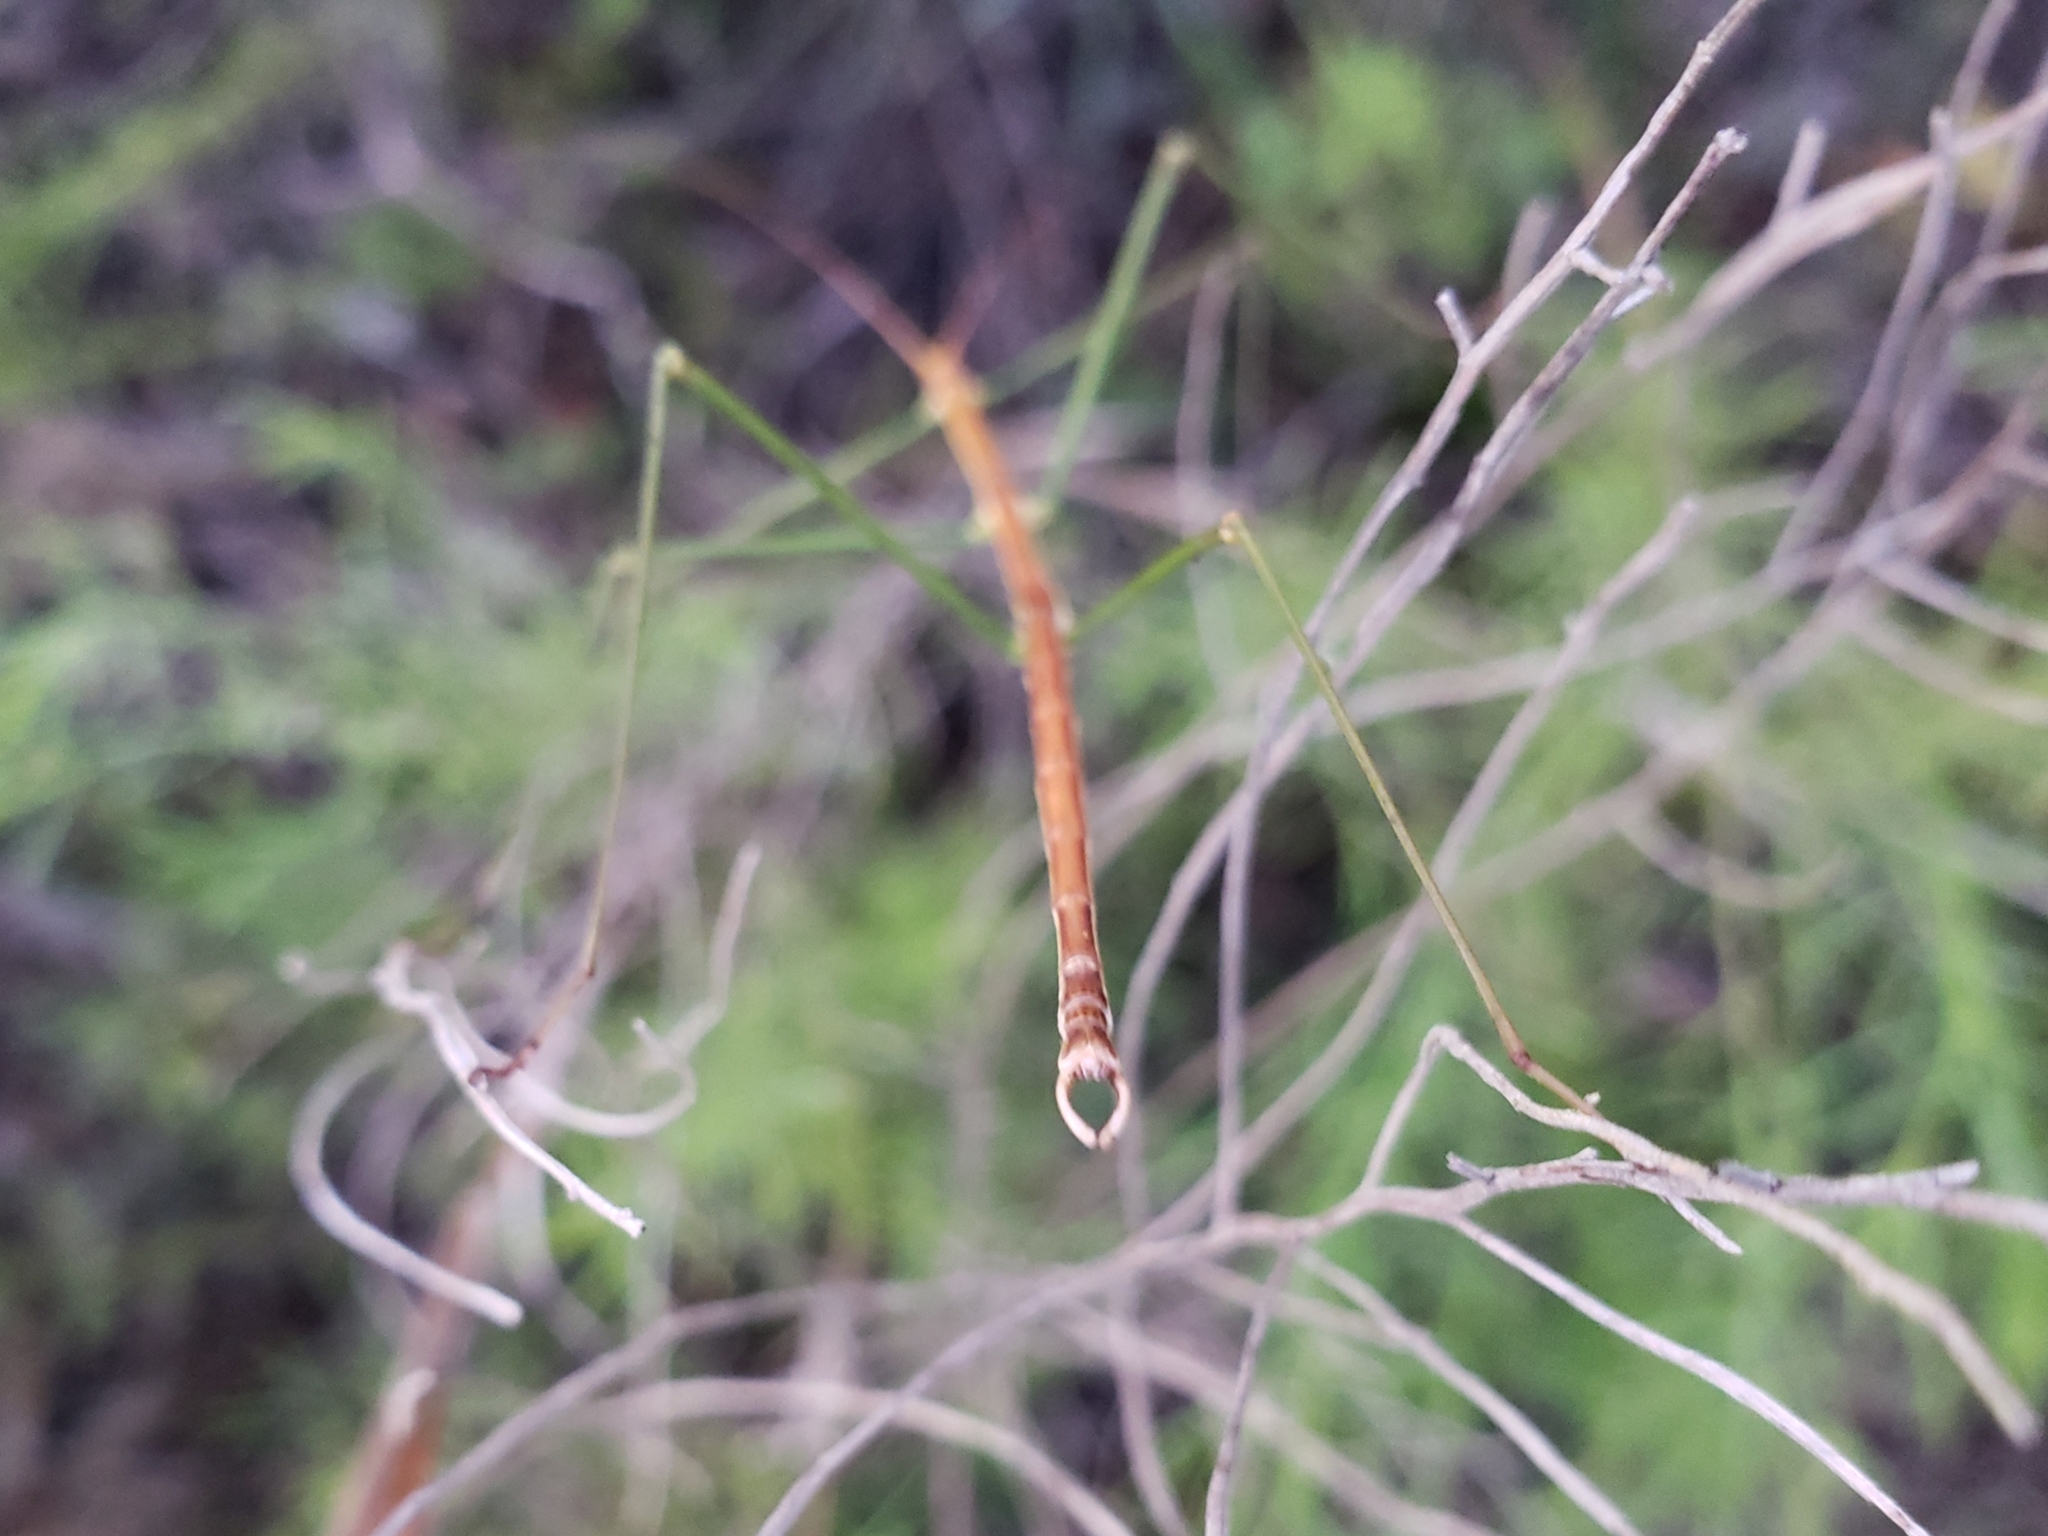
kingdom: Animalia
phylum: Arthropoda
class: Insecta
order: Phasmida
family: Diapheromeridae
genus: Manomera
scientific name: Manomera brachypyga
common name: Short-rumped walkingstick
